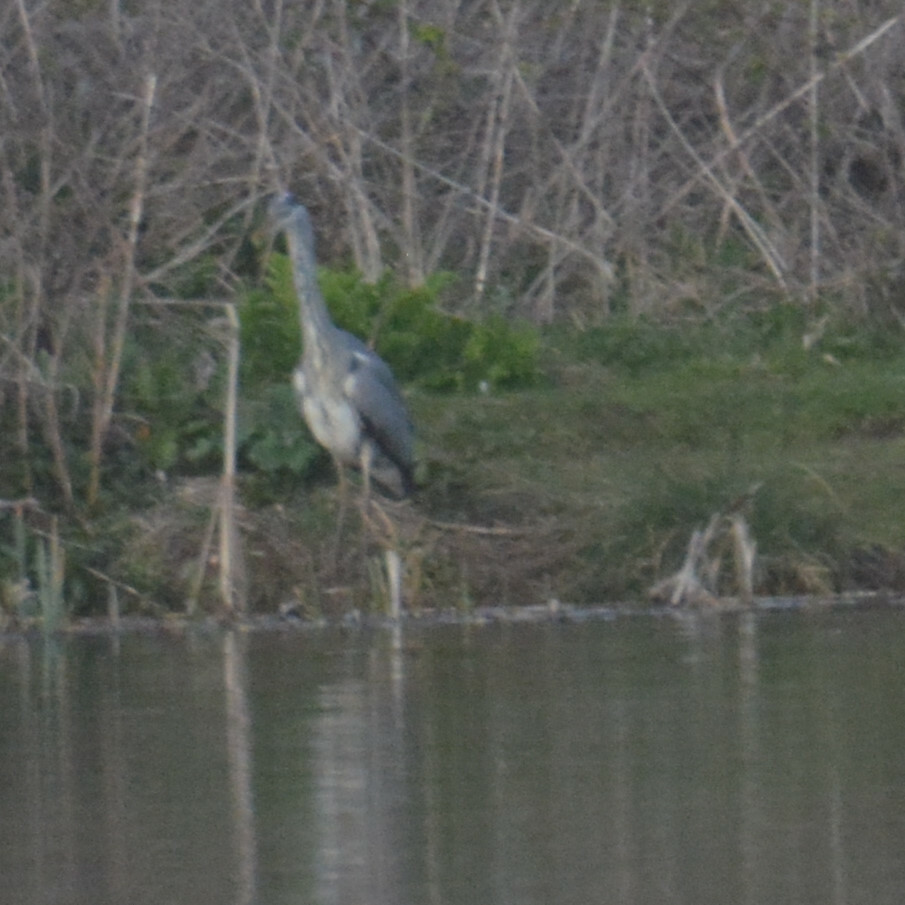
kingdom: Animalia
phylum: Chordata
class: Aves
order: Pelecaniformes
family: Ardeidae
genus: Ardea
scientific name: Ardea cinerea
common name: Grey heron
